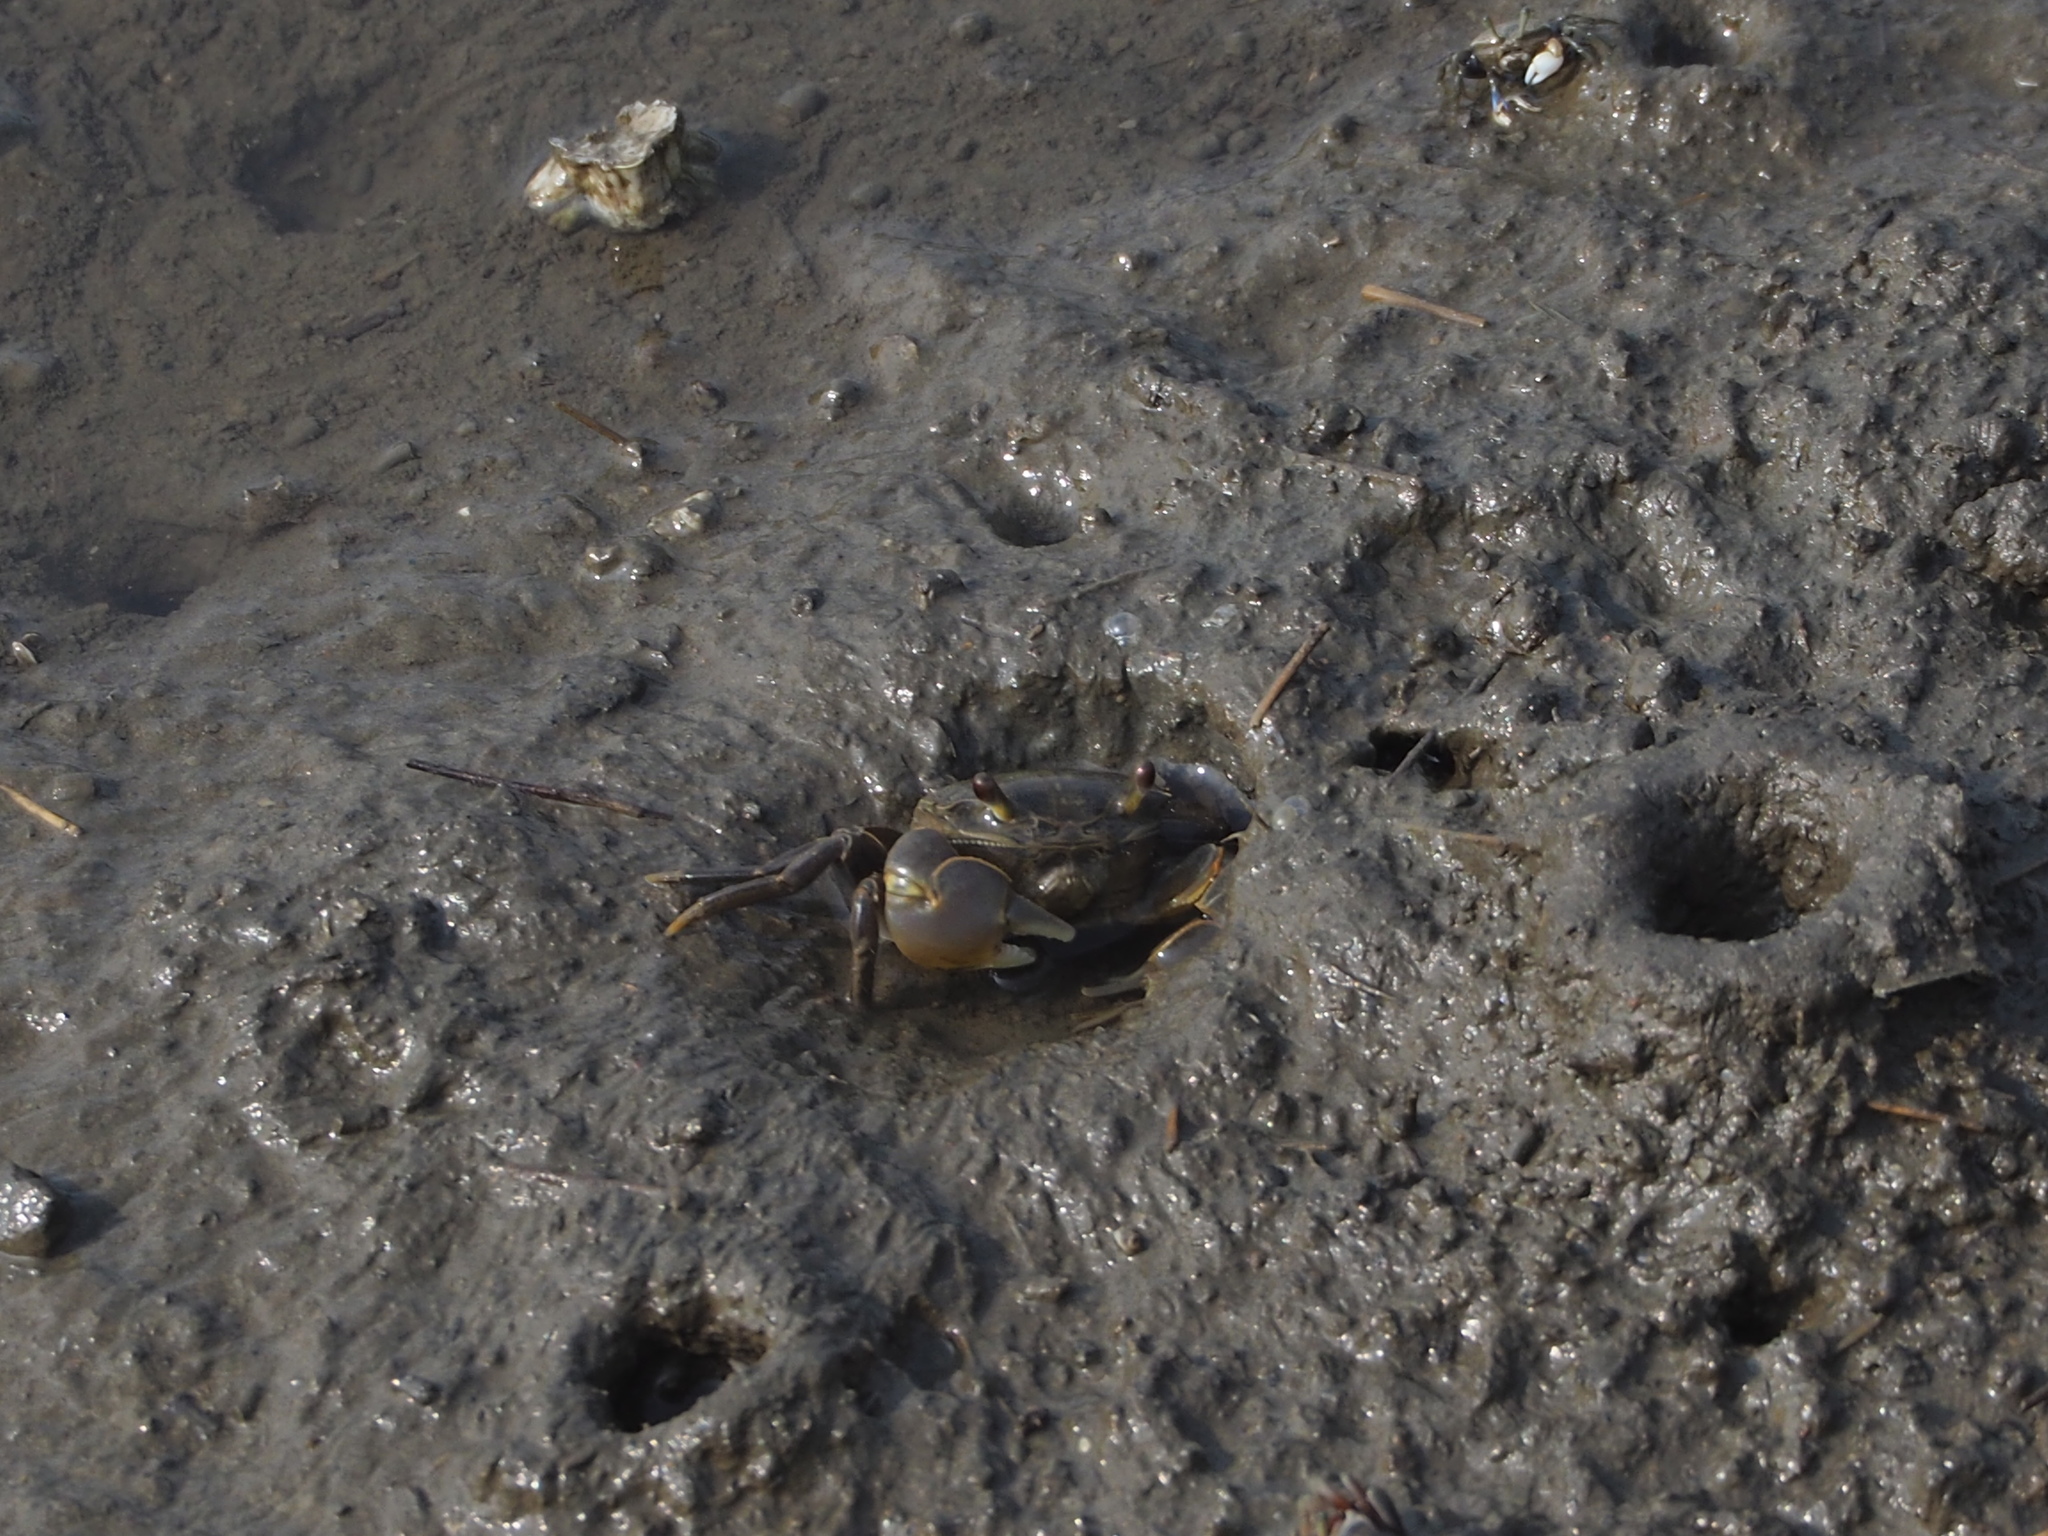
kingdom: Animalia
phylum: Arthropoda
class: Malacostraca
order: Decapoda
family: Varunidae
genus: Helice
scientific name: Helice formosensis
